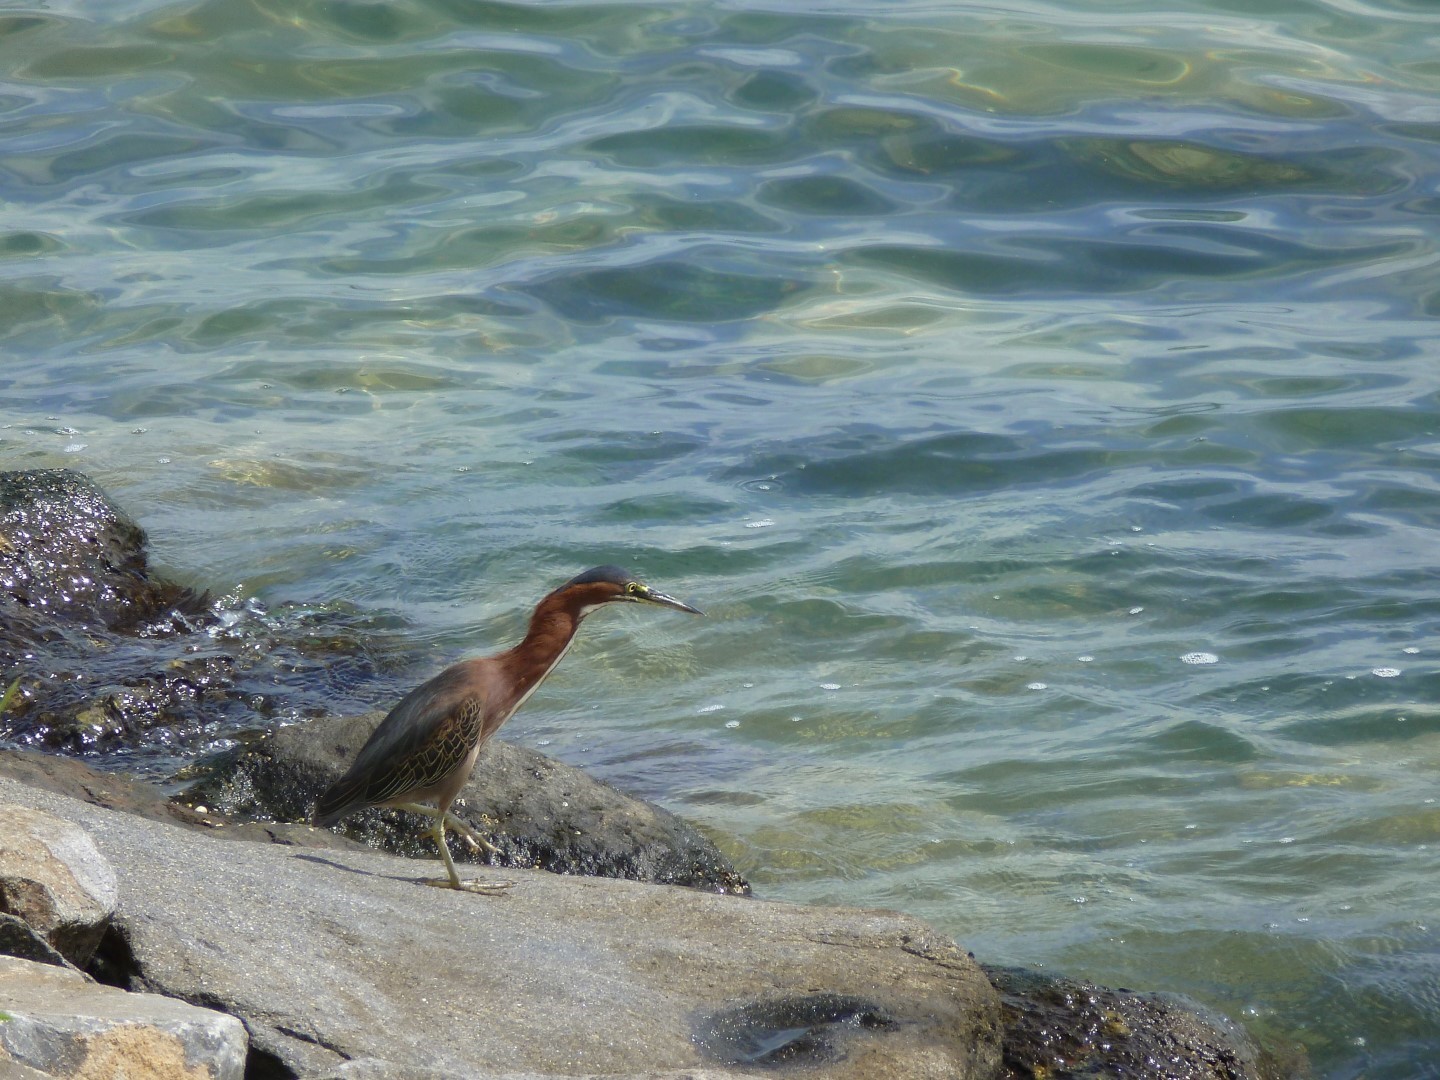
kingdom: Animalia
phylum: Chordata
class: Aves
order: Pelecaniformes
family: Ardeidae
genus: Butorides
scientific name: Butorides virescens
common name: Green heron
